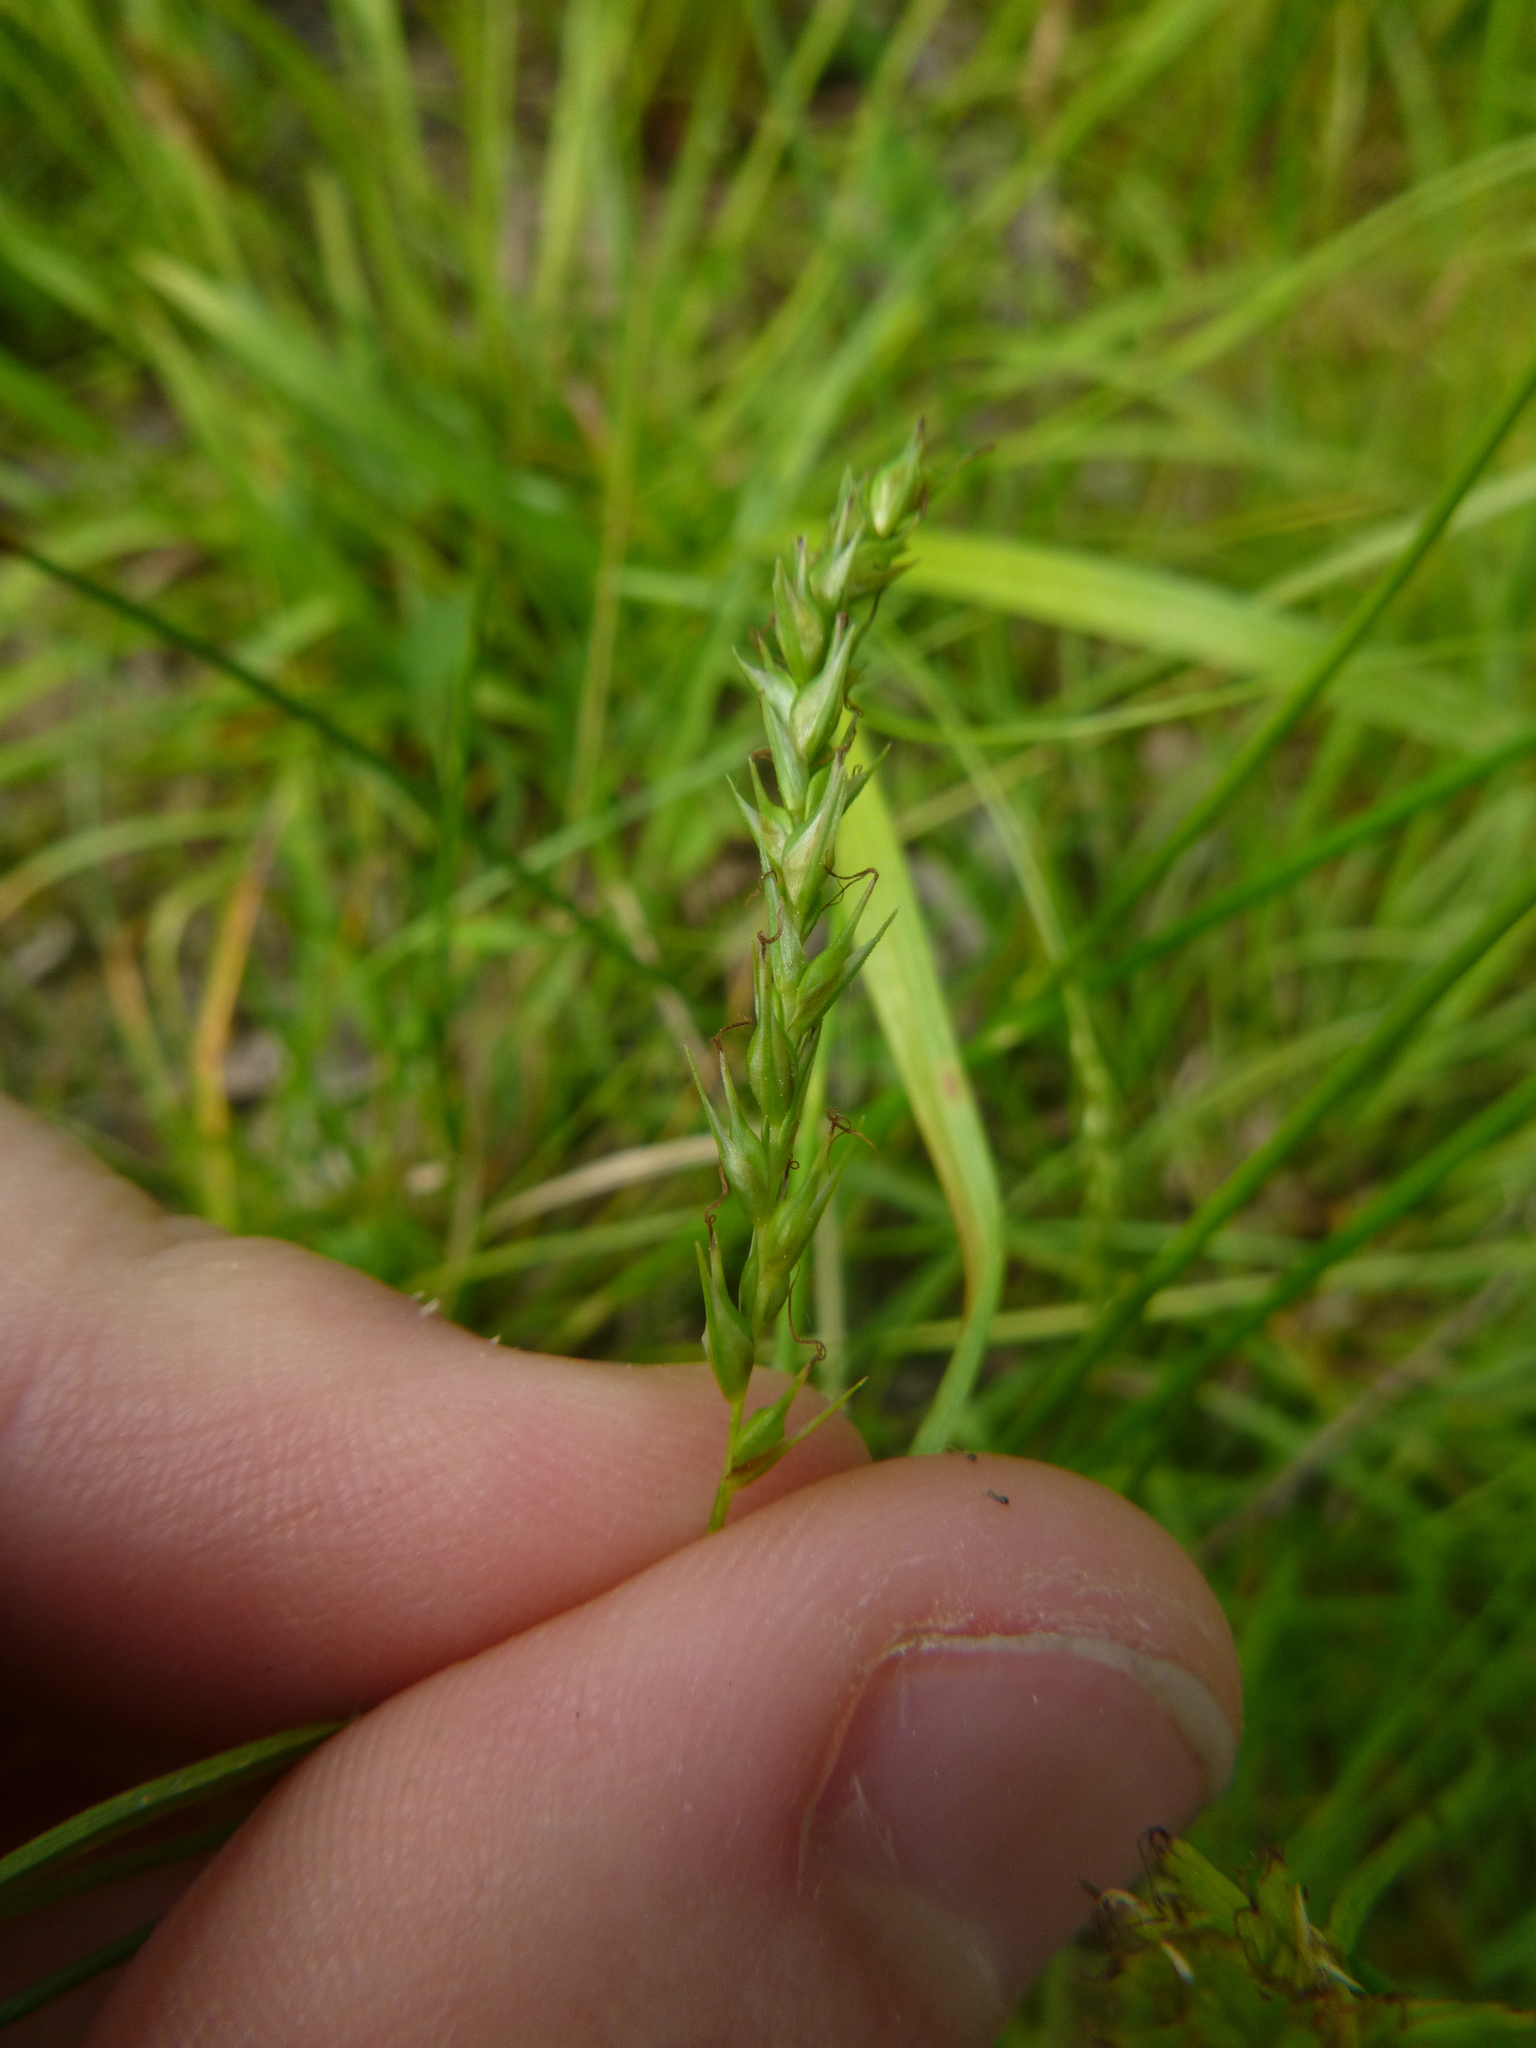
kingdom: Plantae
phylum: Tracheophyta
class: Liliopsida
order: Poales
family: Cyperaceae
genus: Carex
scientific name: Carex sylvatica
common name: Wood-sedge
